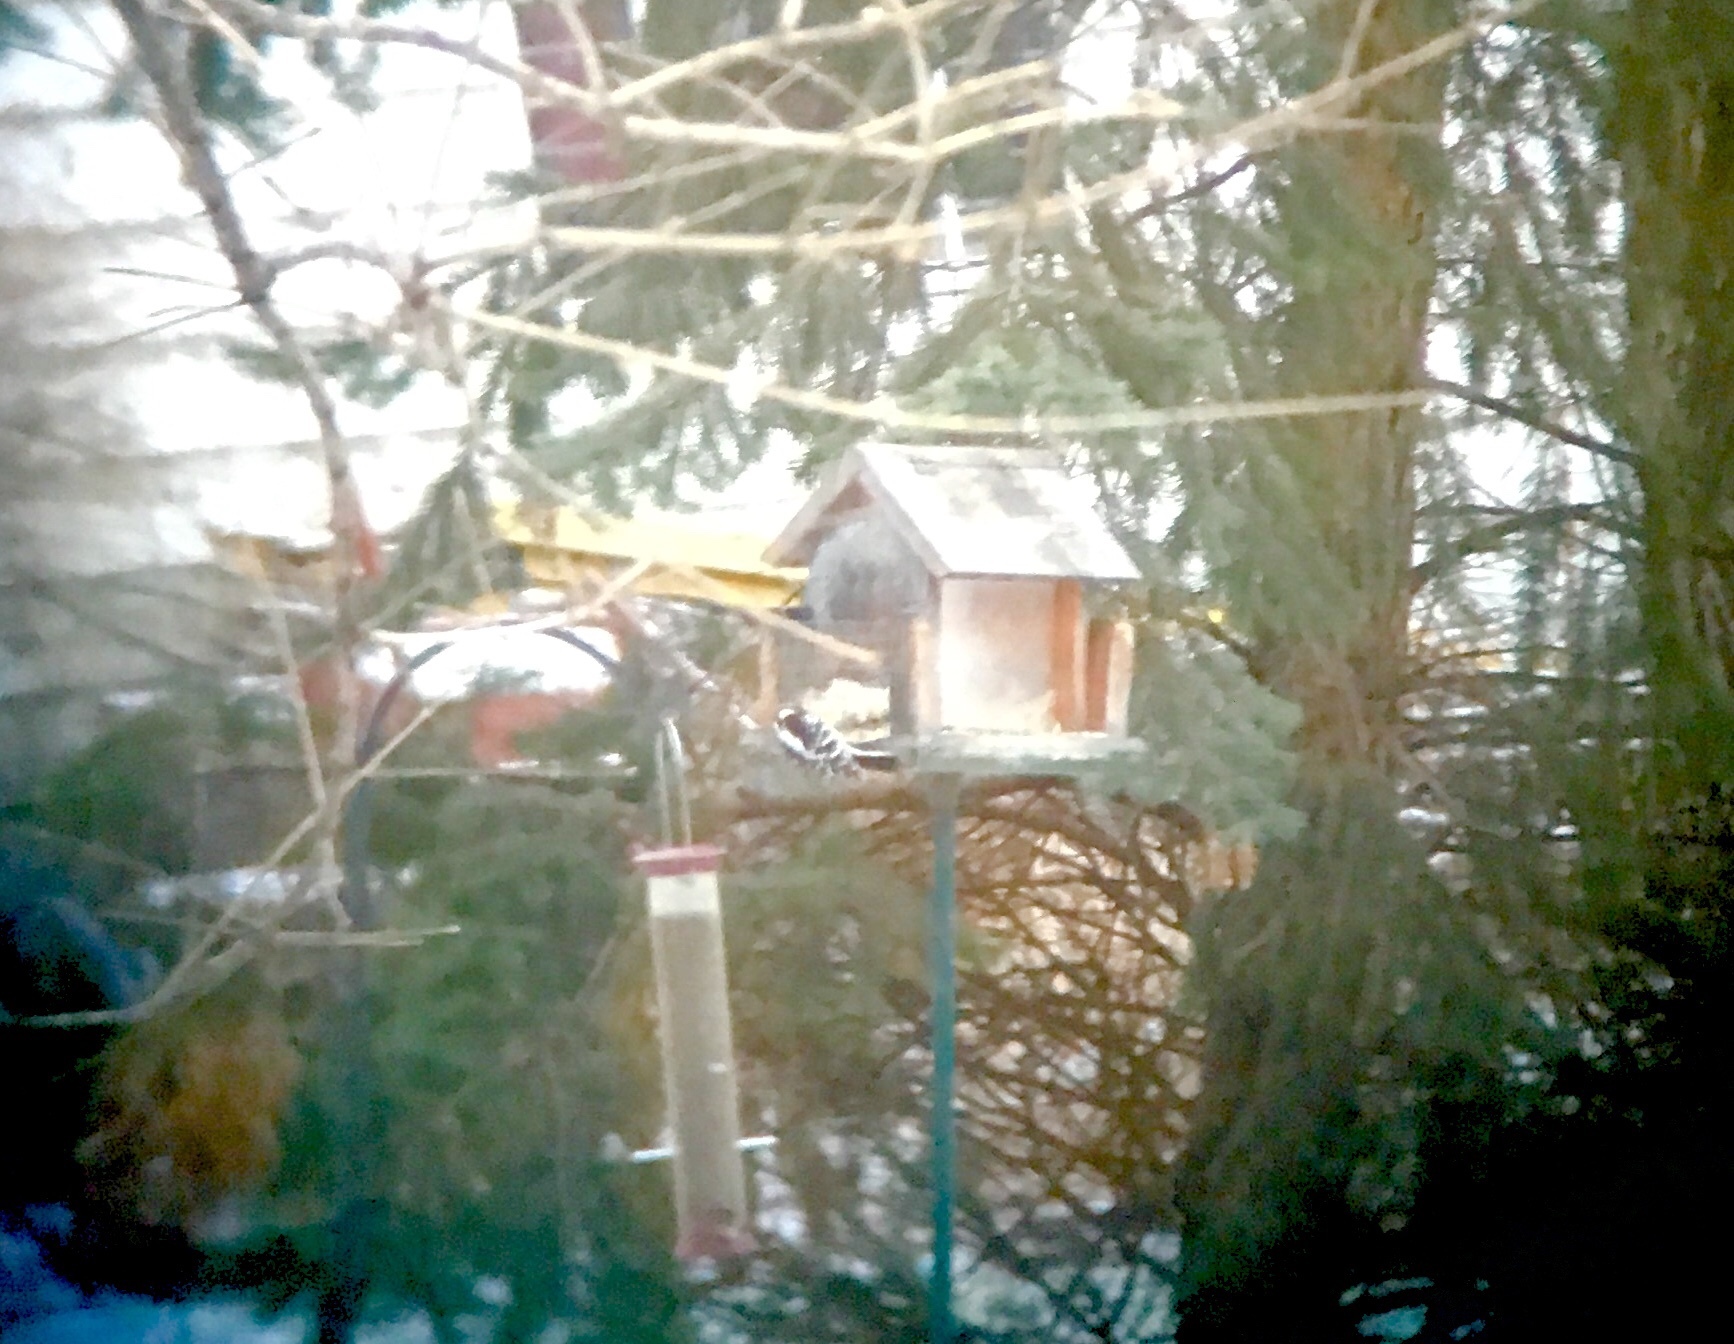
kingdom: Animalia
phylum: Chordata
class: Aves
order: Piciformes
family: Picidae
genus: Dryobates
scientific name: Dryobates pubescens
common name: Downy woodpecker
